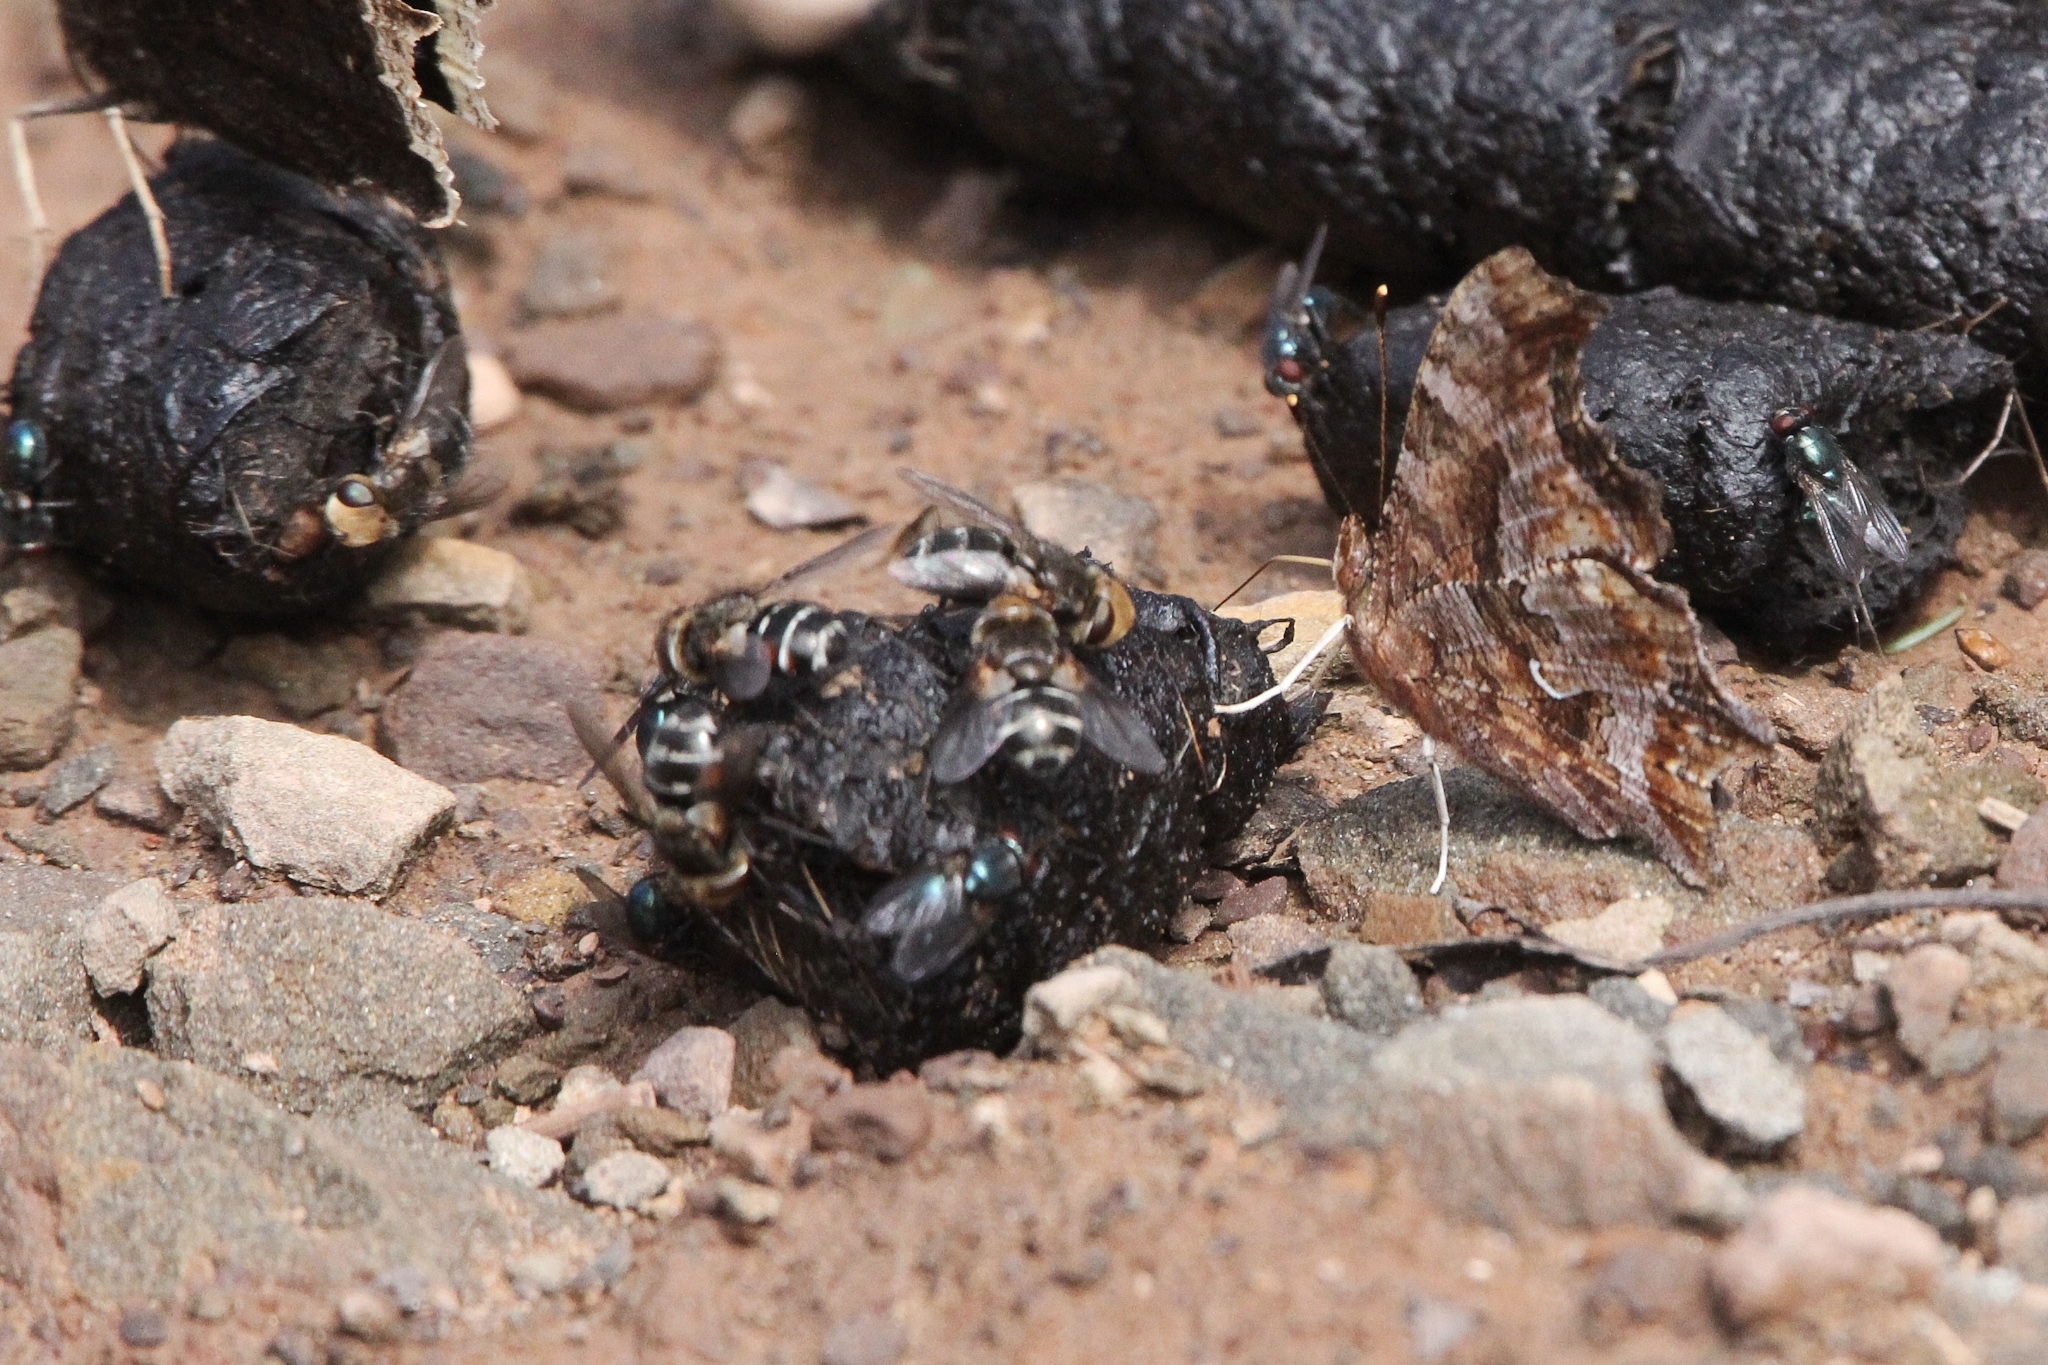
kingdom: Animalia
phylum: Arthropoda
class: Insecta
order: Lepidoptera
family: Nymphalidae
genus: Polygonia
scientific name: Polygonia comma
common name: Eastern comma
